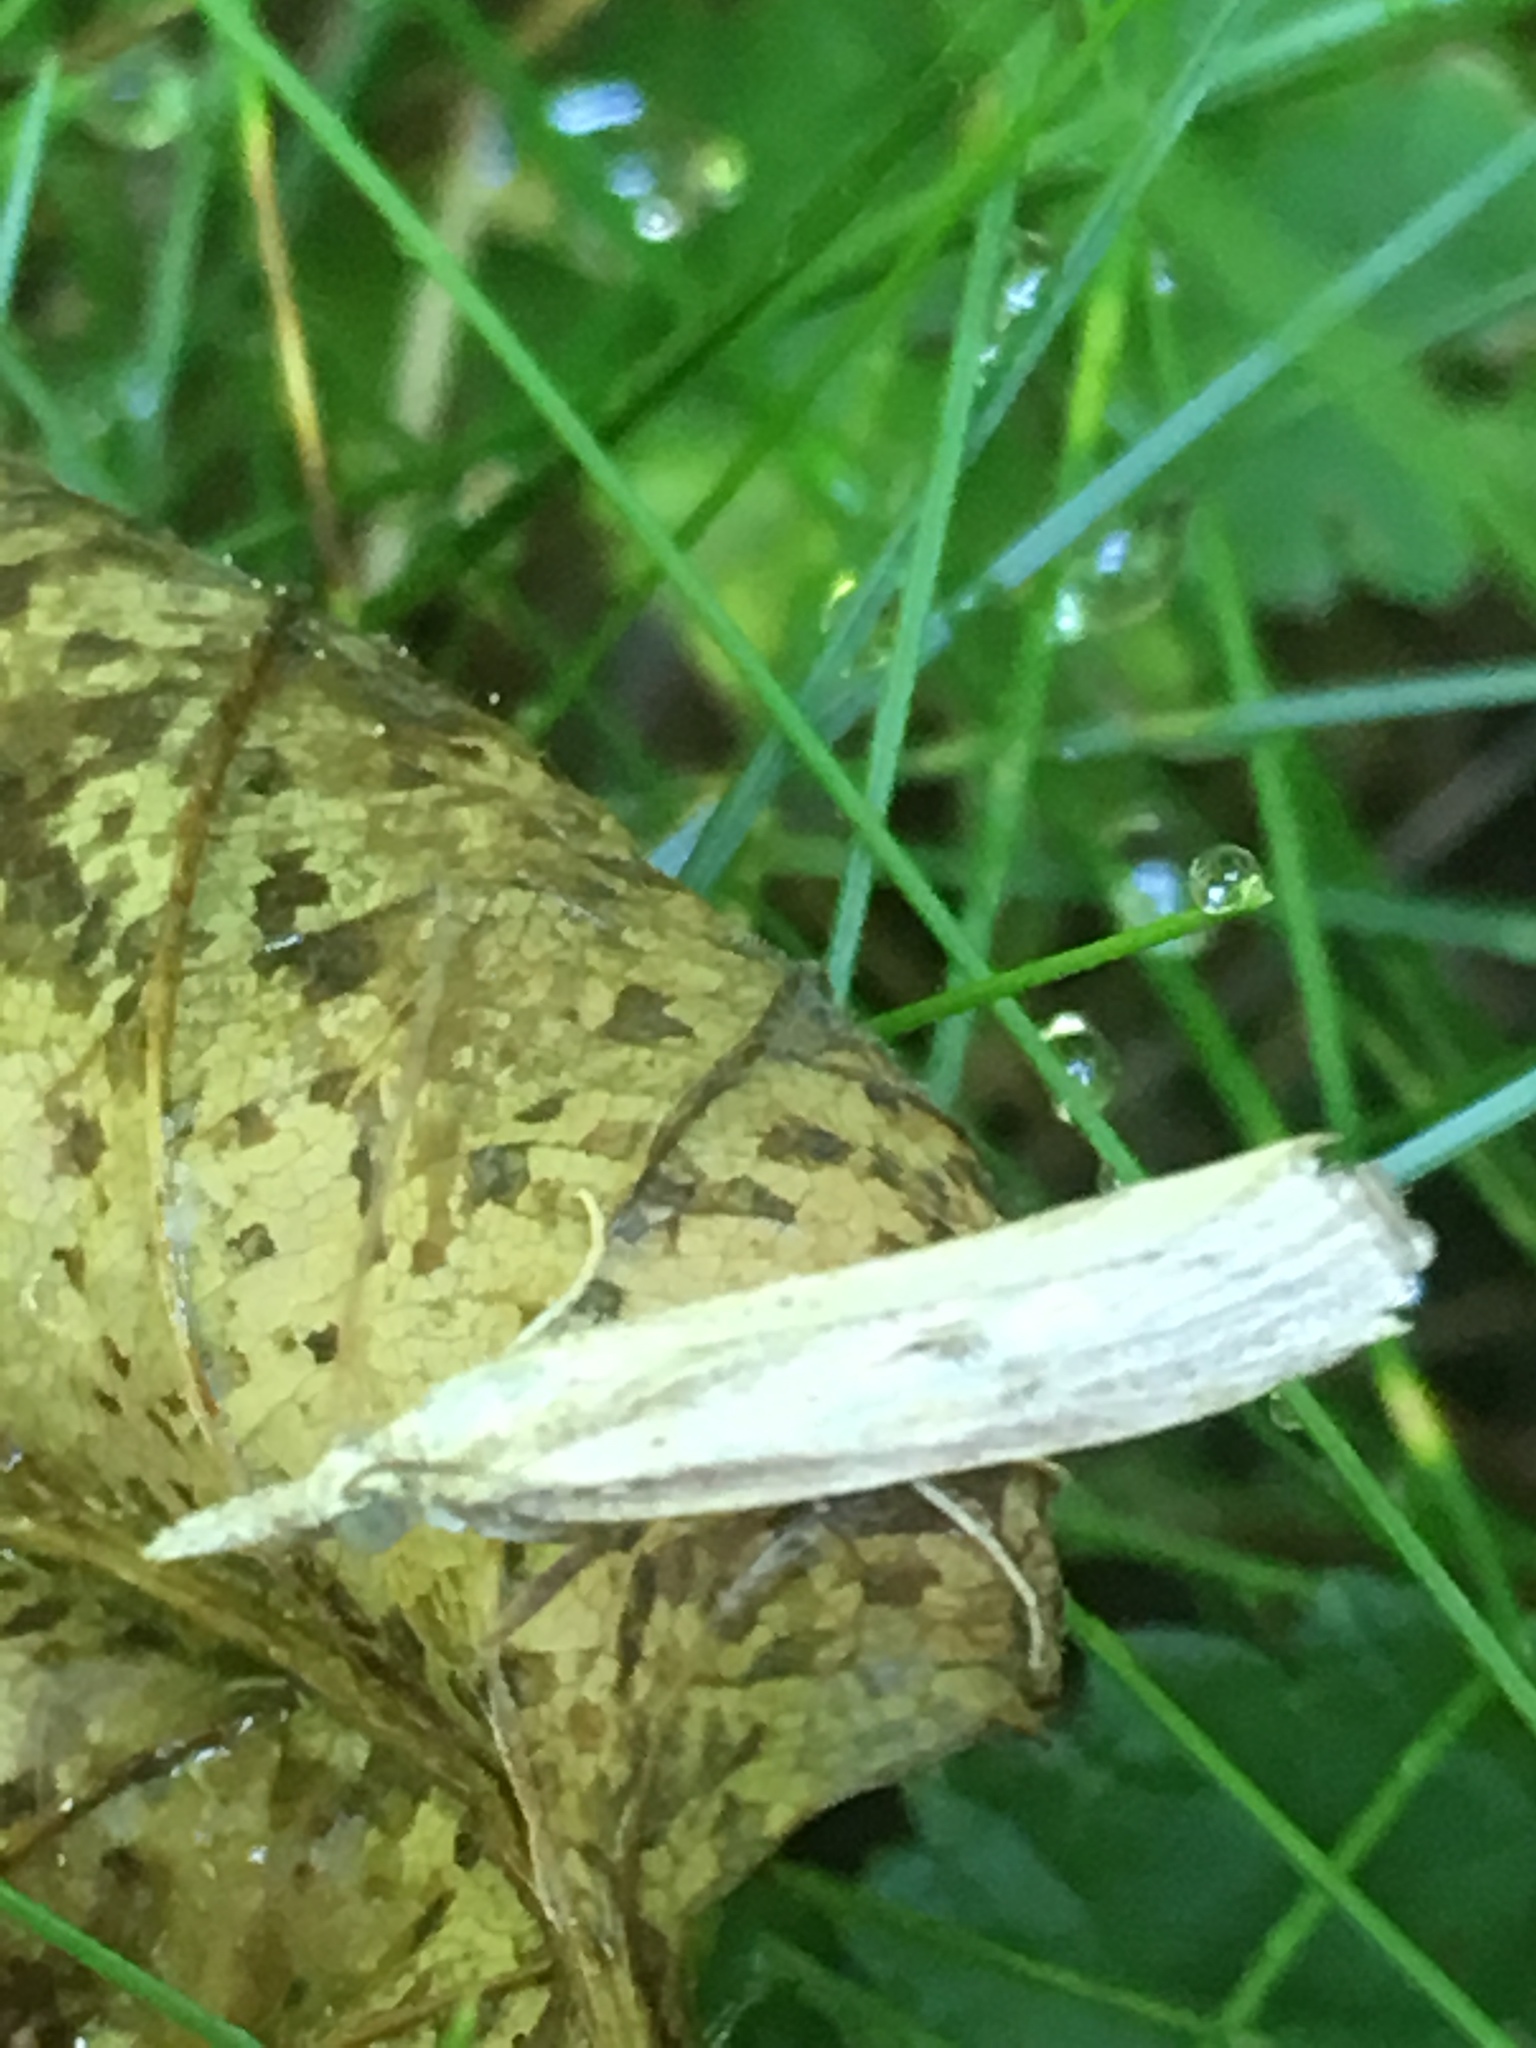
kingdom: Animalia
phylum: Arthropoda
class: Insecta
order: Lepidoptera
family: Crambidae
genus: Agriphila
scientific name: Agriphila inquinatella
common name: Barred grass-veneer
